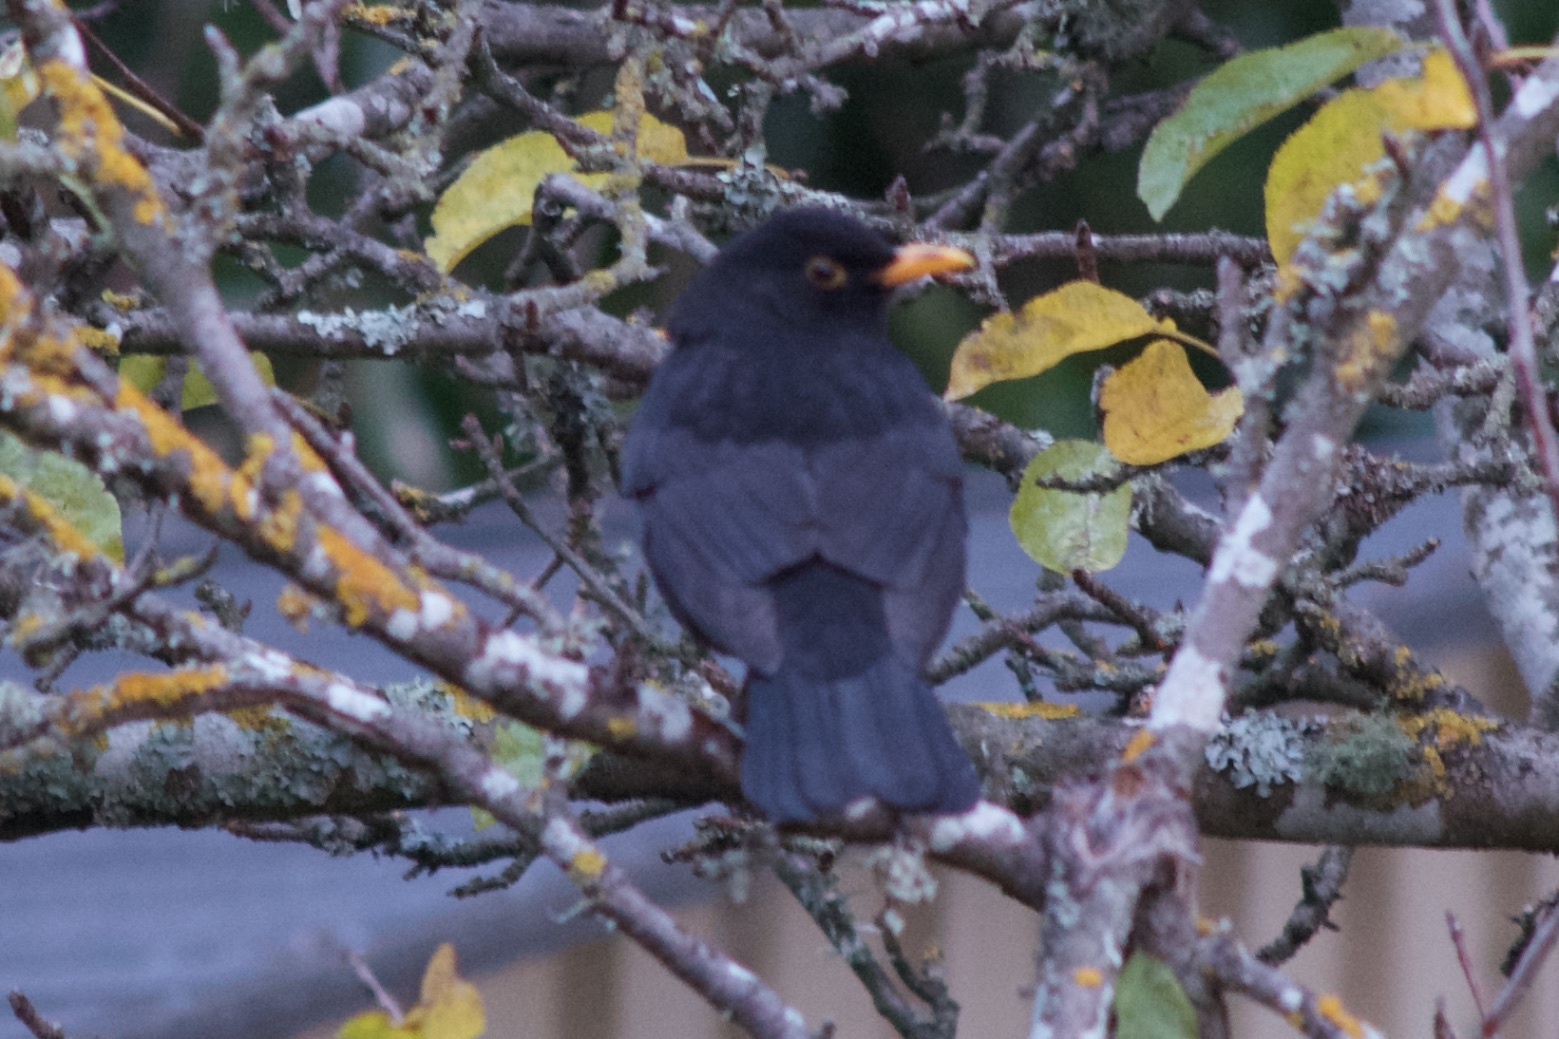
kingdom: Animalia
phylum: Chordata
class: Aves
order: Passeriformes
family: Turdidae
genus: Turdus
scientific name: Turdus merula
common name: Common blackbird
